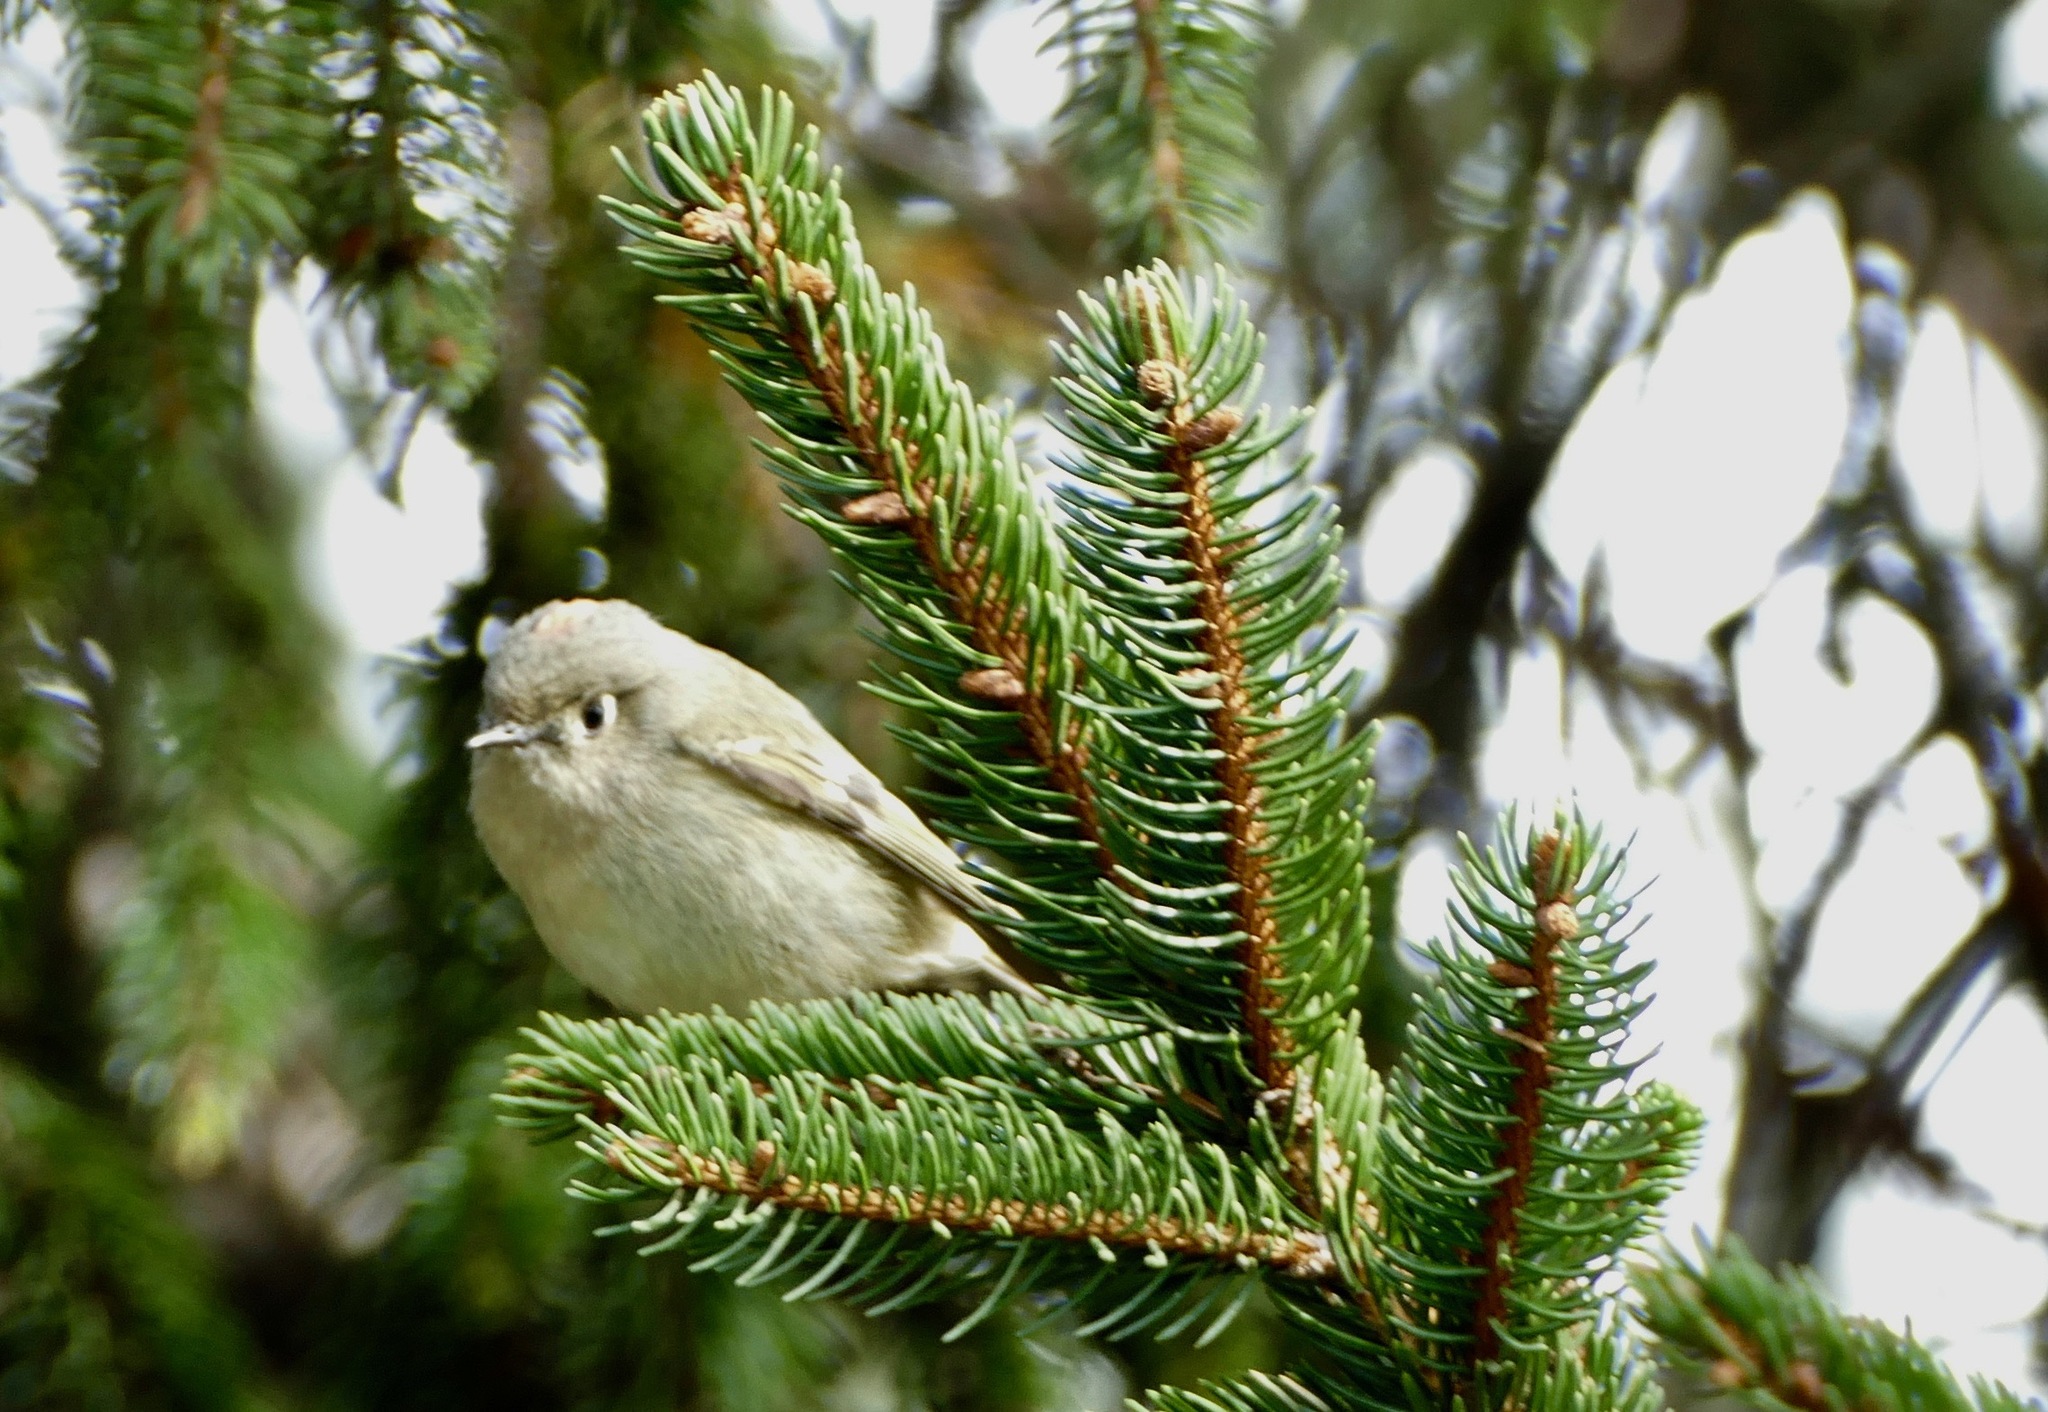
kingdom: Animalia
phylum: Chordata
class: Aves
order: Passeriformes
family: Regulidae
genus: Regulus
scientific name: Regulus calendula
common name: Ruby-crowned kinglet
